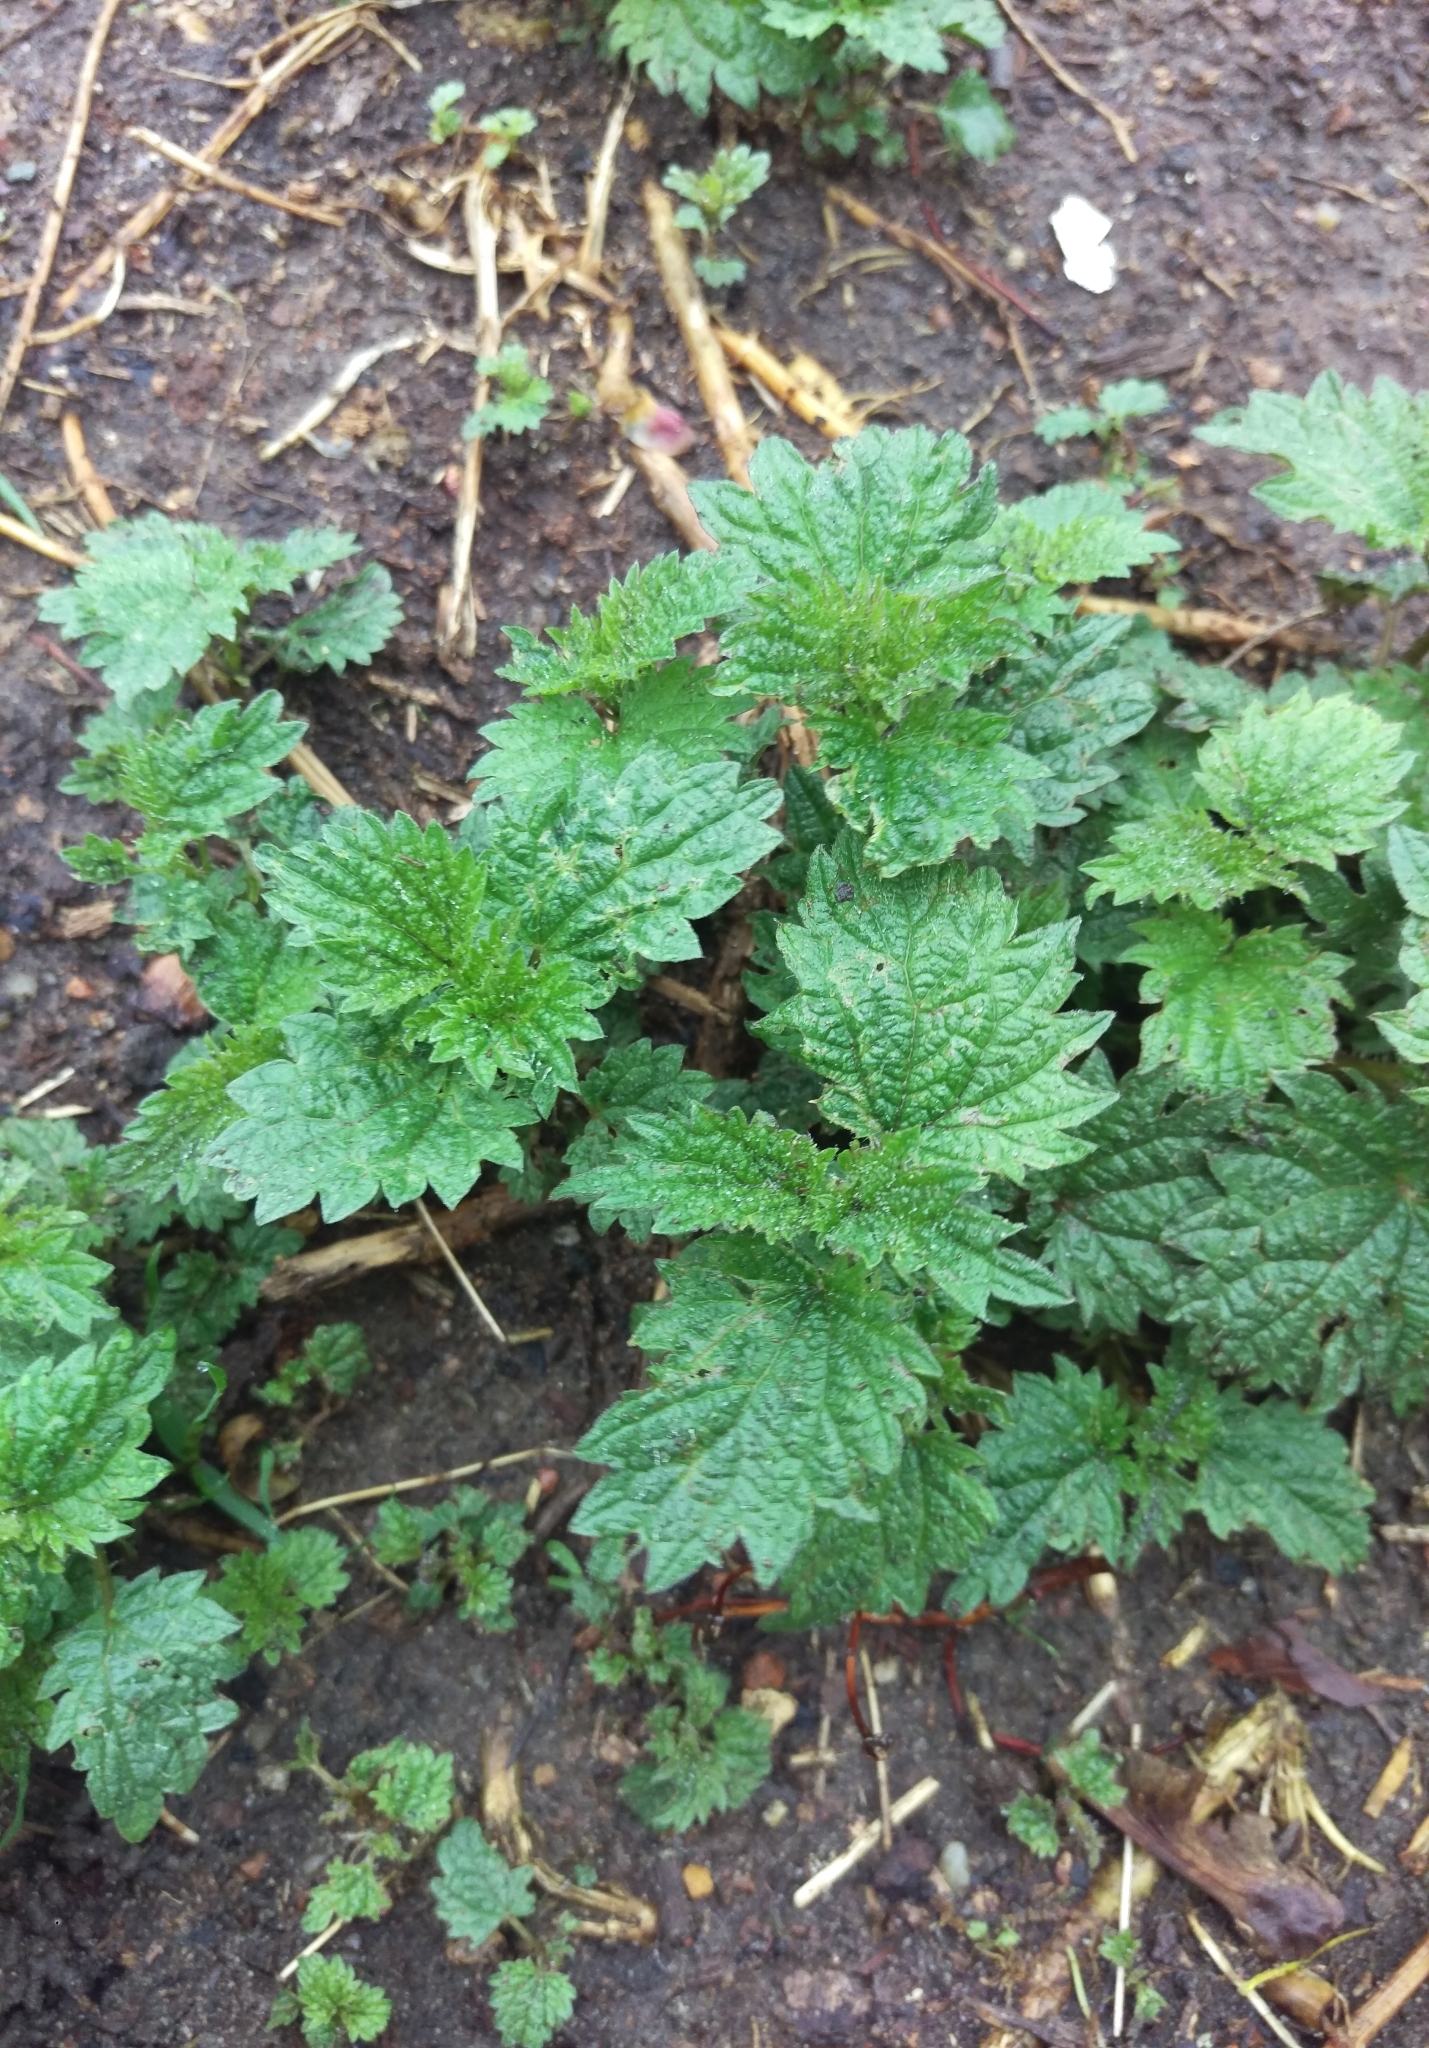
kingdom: Plantae
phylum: Tracheophyta
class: Magnoliopsida
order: Rosales
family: Urticaceae
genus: Urtica
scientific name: Urtica dioica
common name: Common nettle
